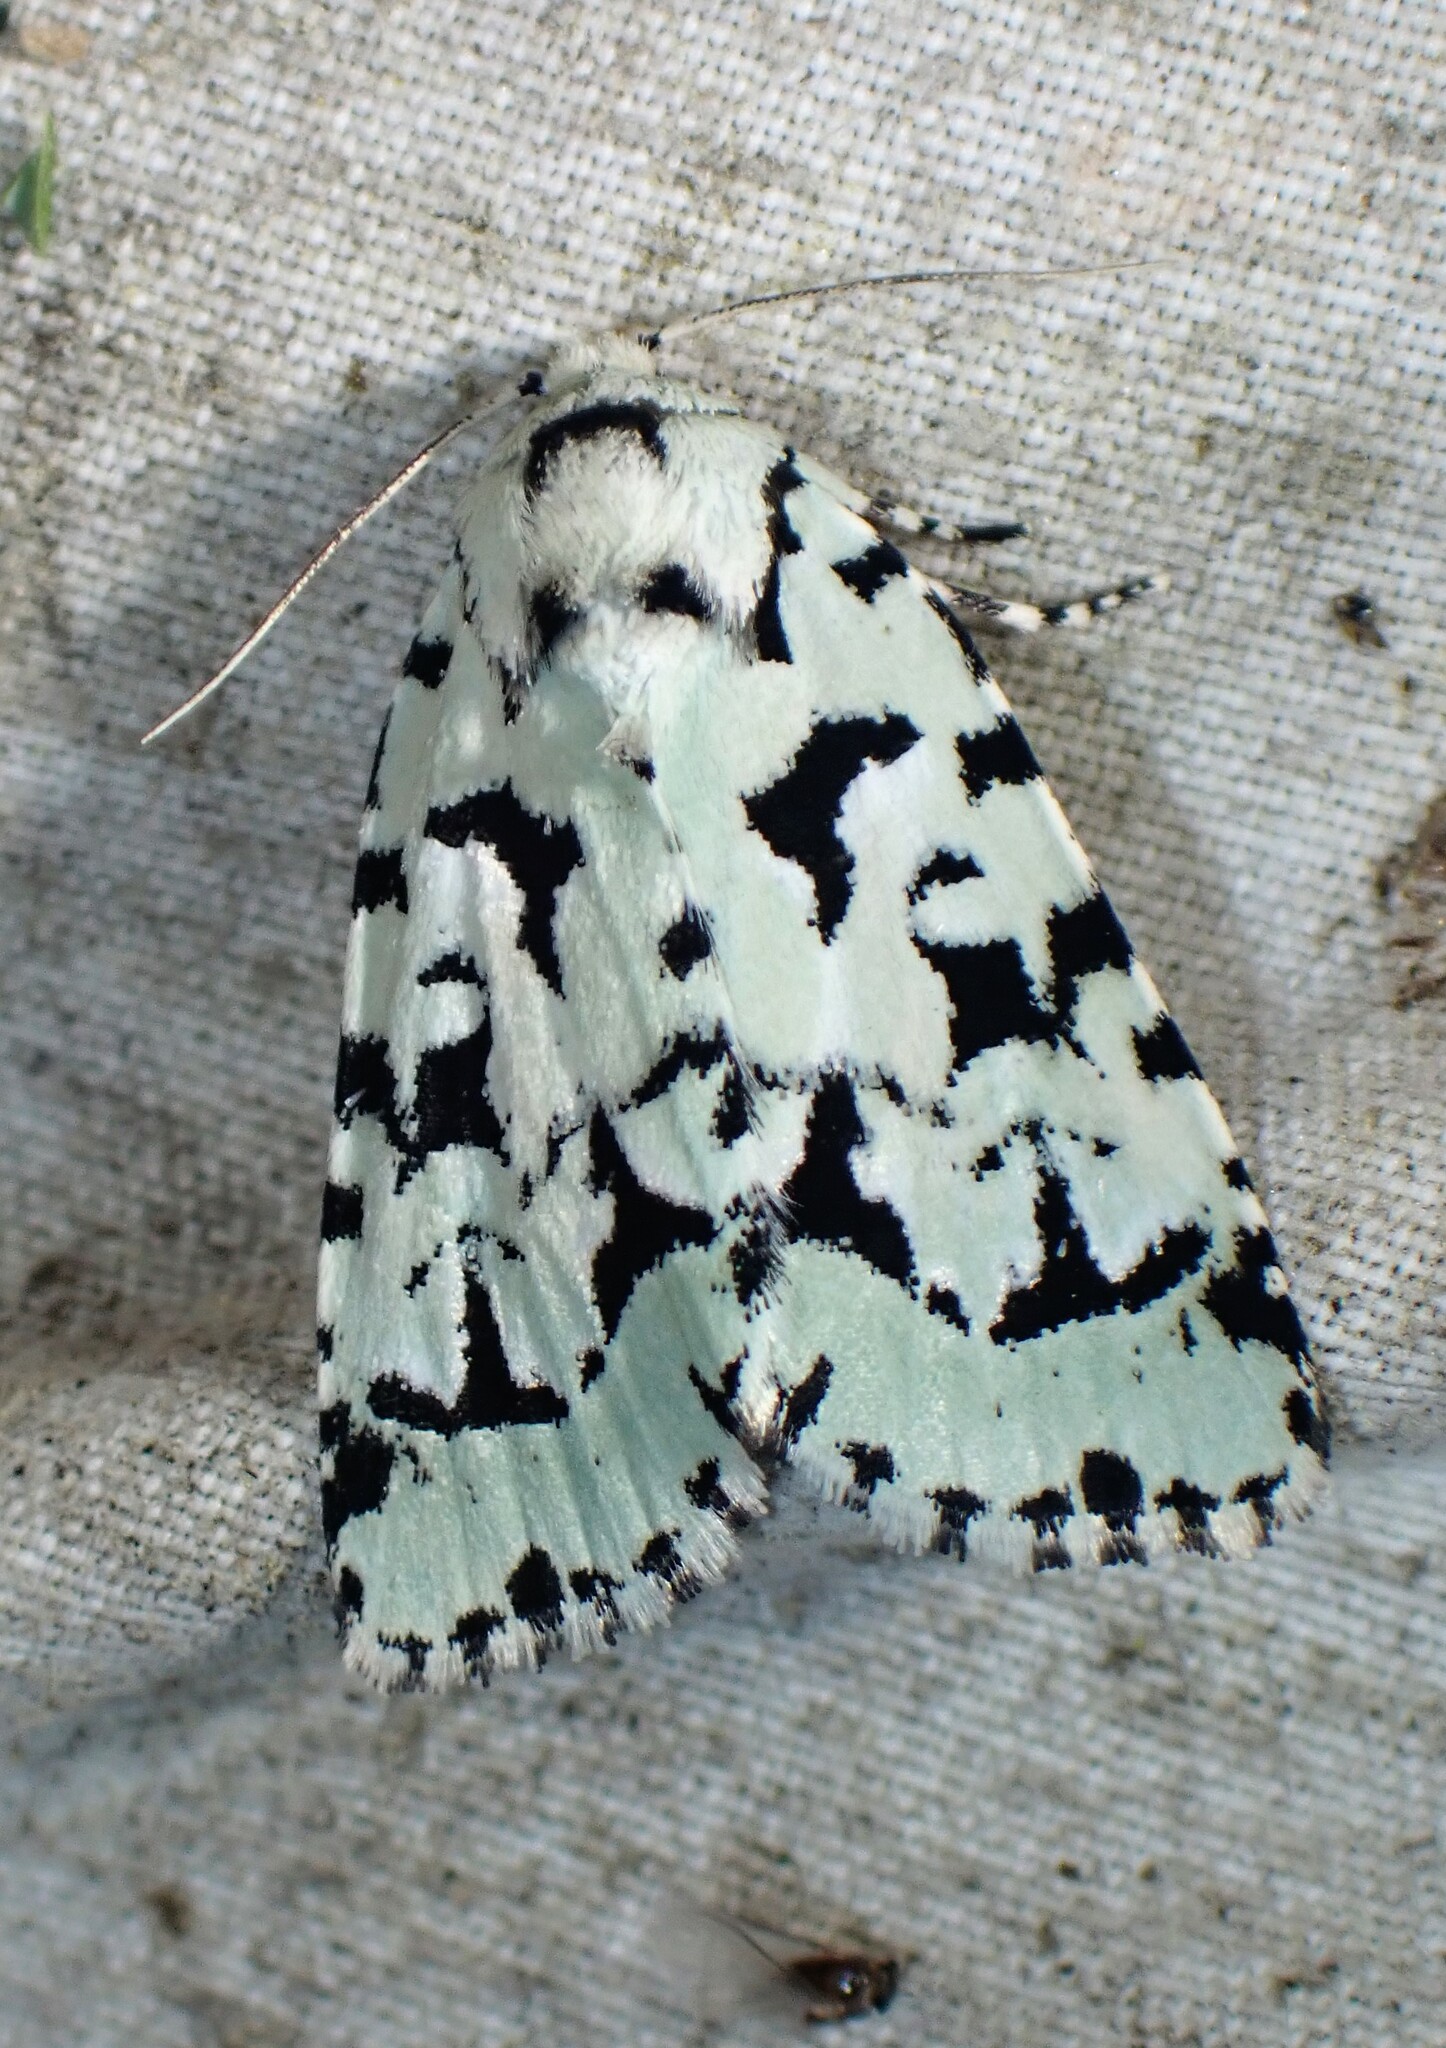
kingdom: Animalia
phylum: Arthropoda
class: Insecta
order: Lepidoptera
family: Noctuidae
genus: Acronicta
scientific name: Acronicta fallax
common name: Green marvel
